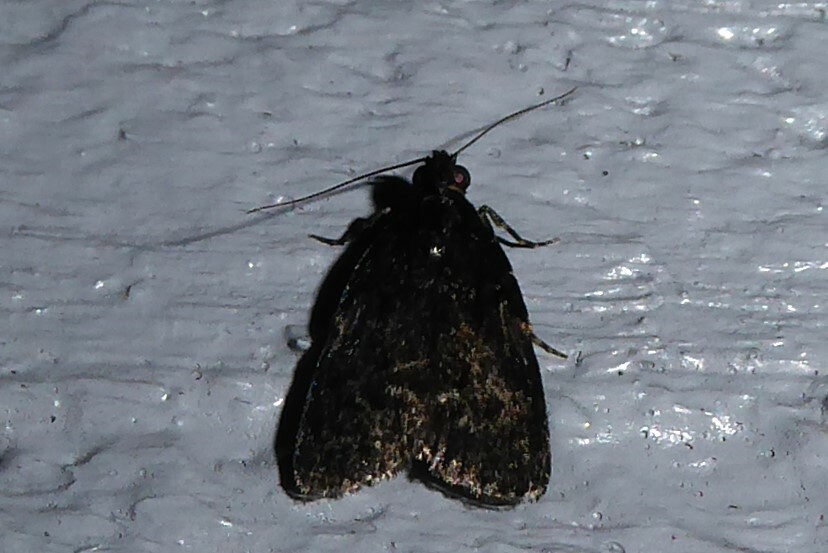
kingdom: Animalia
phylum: Arthropoda
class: Insecta
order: Lepidoptera
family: Pyralidae
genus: Stericta
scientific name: Stericta carbonalis
